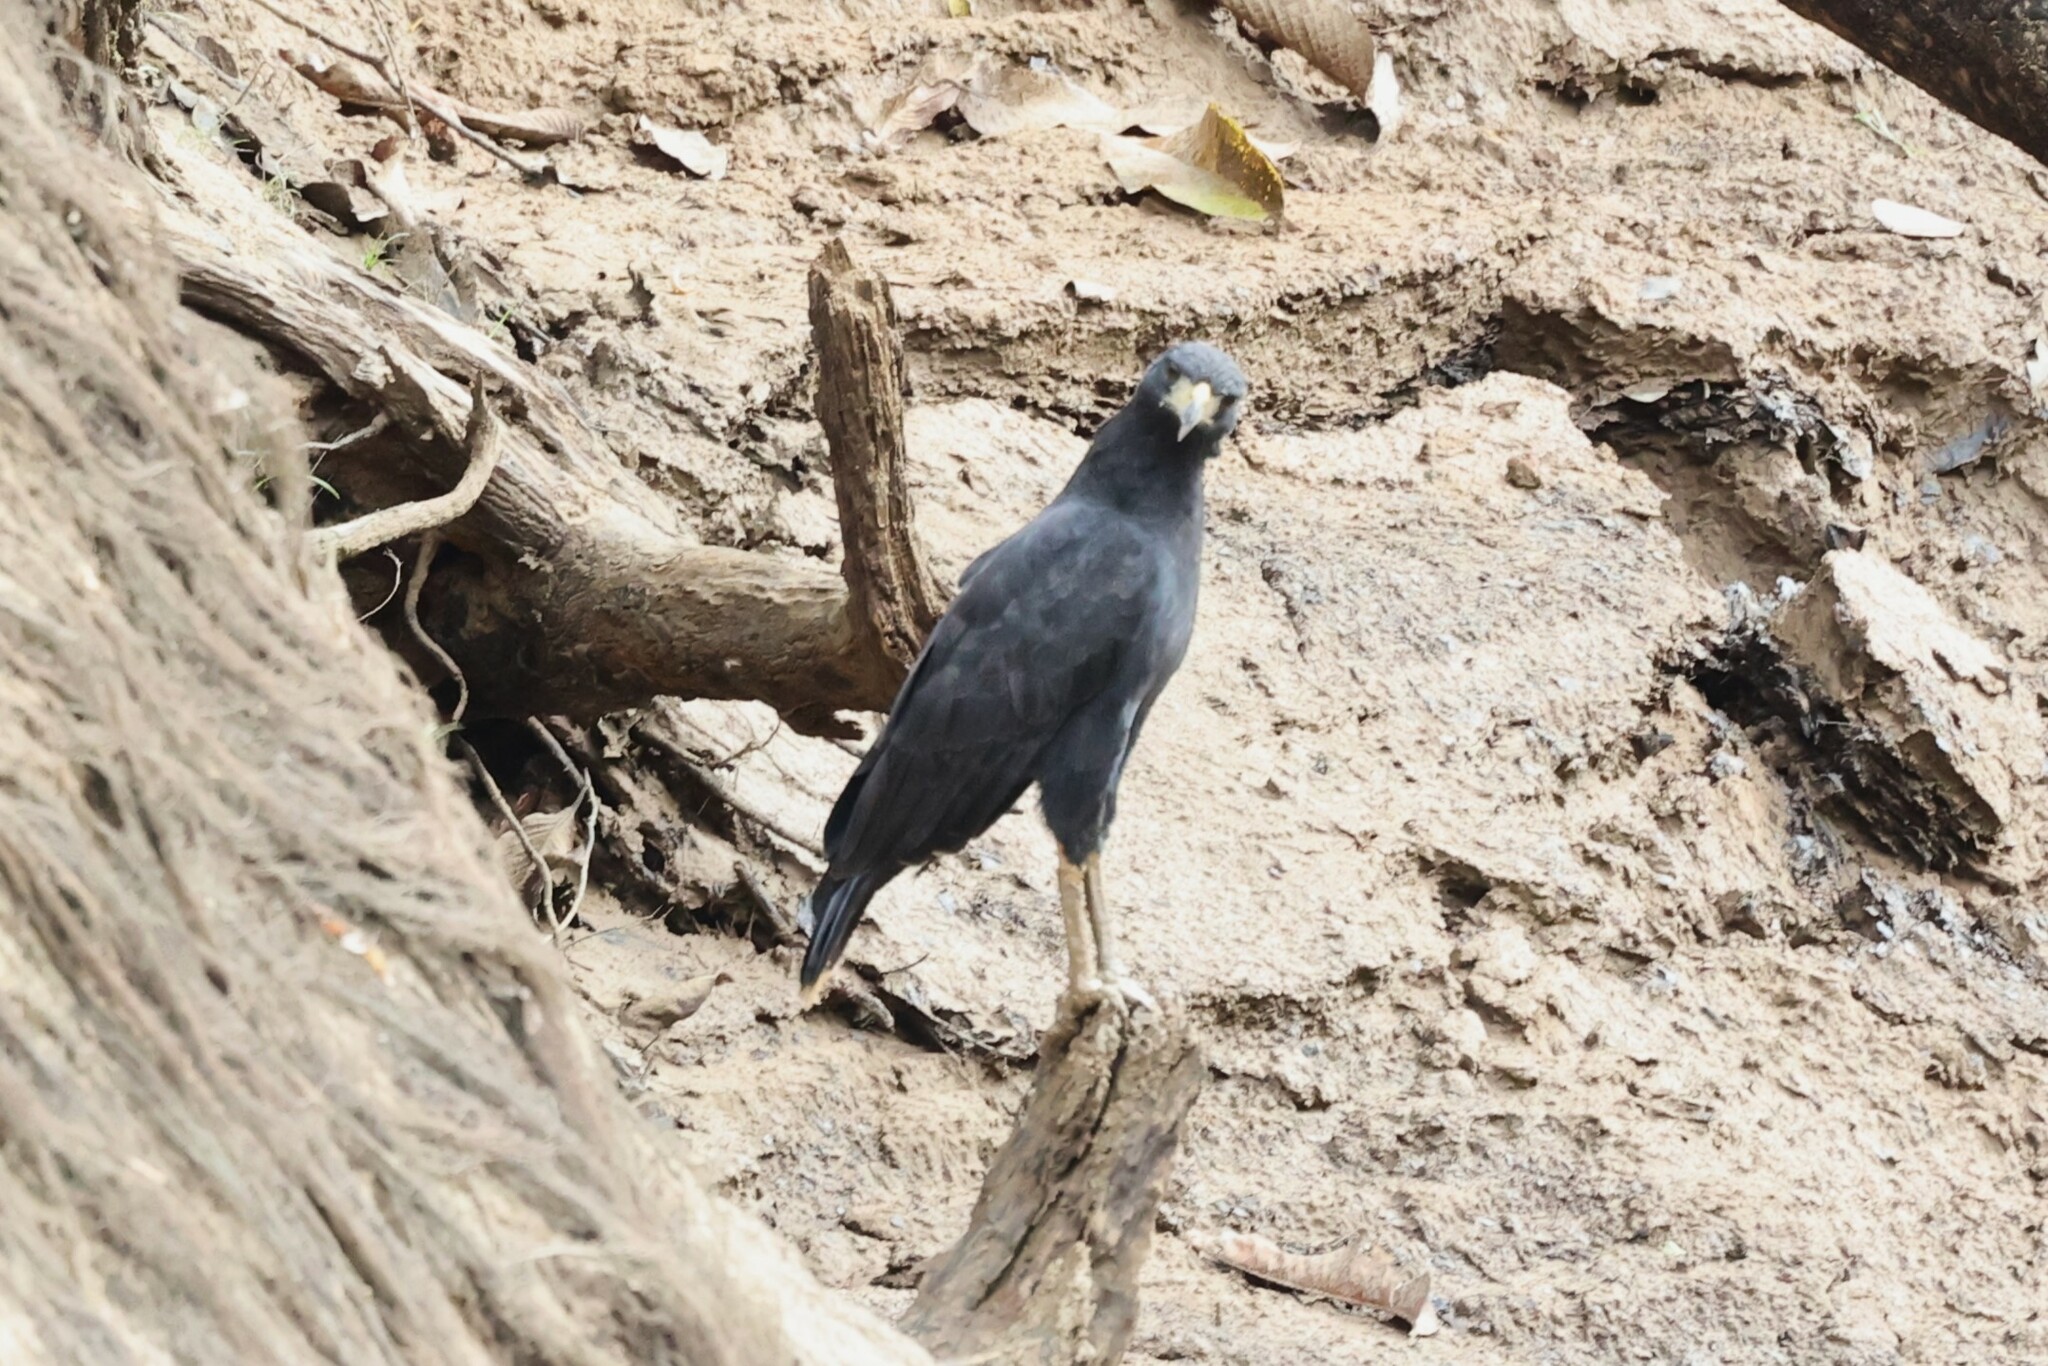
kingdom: Animalia
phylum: Chordata
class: Aves
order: Accipitriformes
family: Accipitridae
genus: Buteogallus
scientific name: Buteogallus urubitinga
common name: Great black hawk
